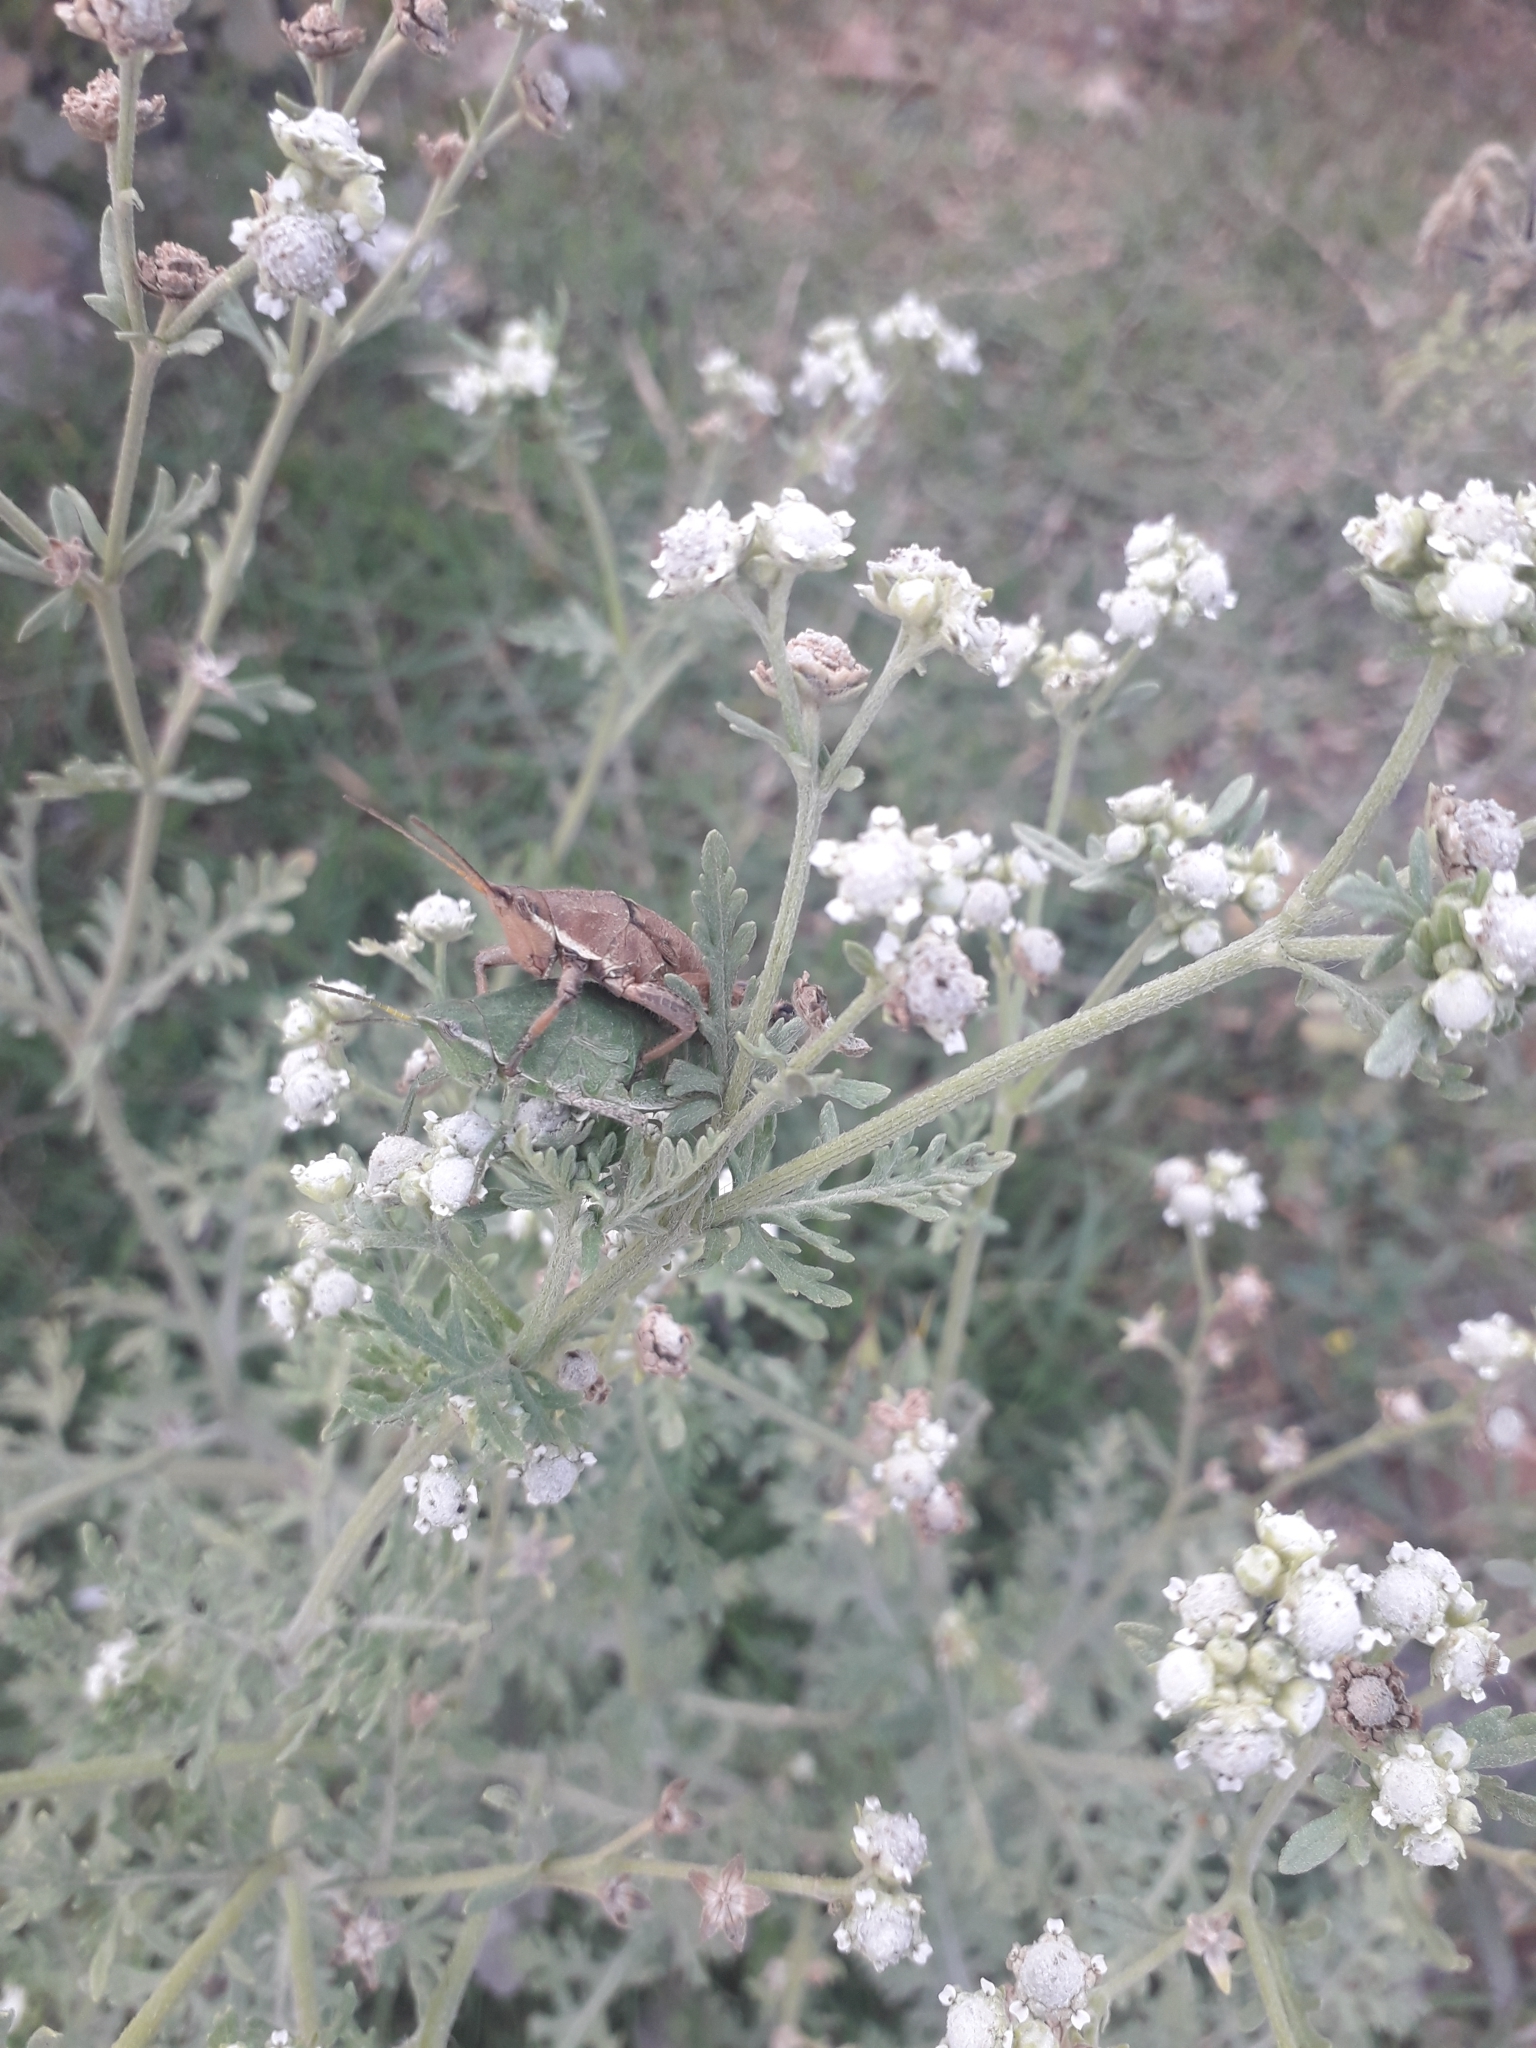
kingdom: Plantae
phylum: Tracheophyta
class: Magnoliopsida
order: Asterales
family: Asteraceae
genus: Parthenium
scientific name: Parthenium bipinnatifidum
